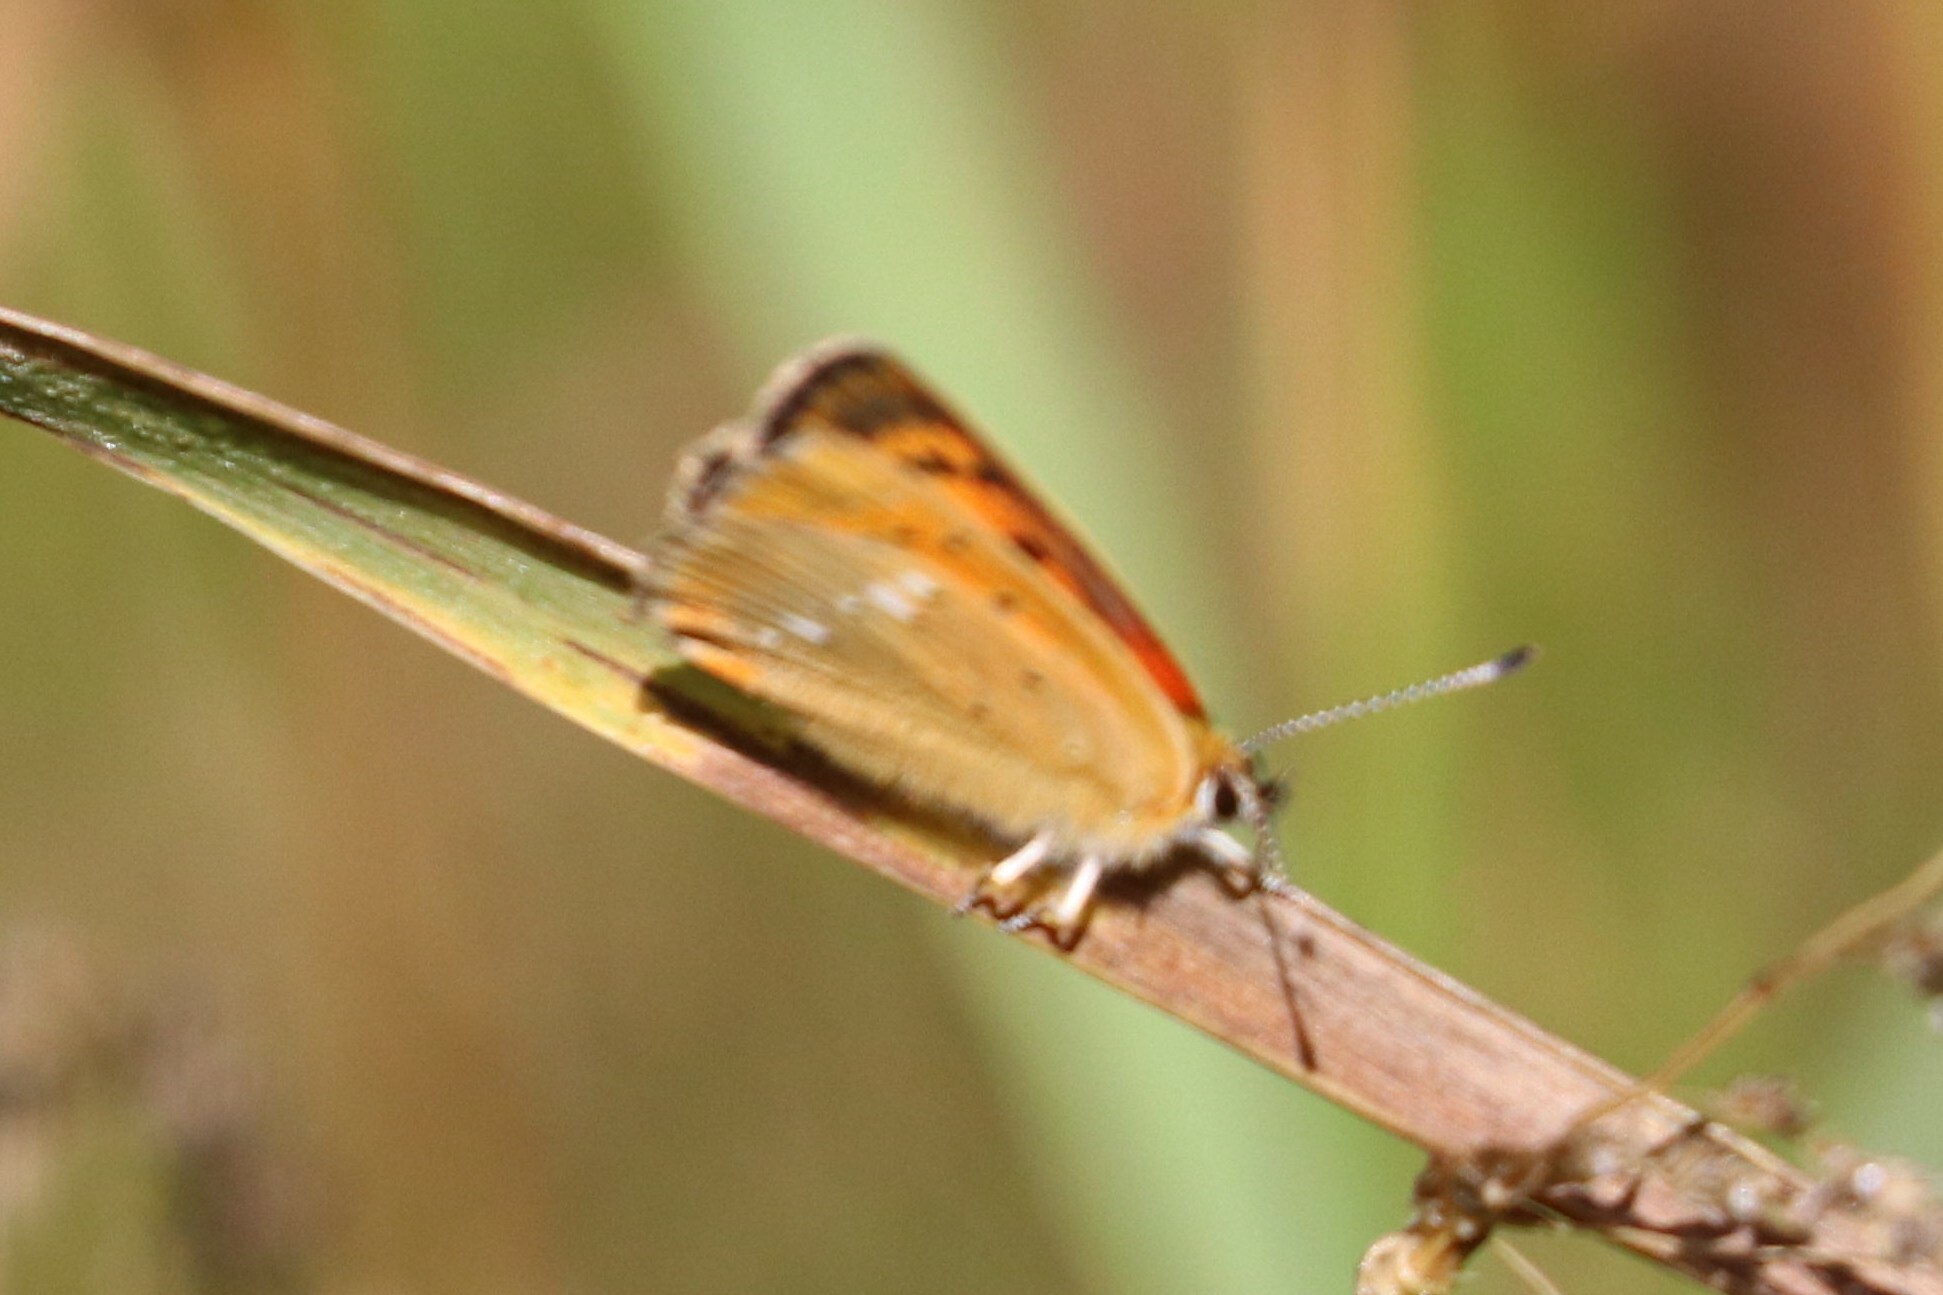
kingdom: Animalia
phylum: Arthropoda
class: Insecta
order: Lepidoptera
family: Lycaenidae
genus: Lycaena
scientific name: Lycaena virgaureae
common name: Scarce copper
